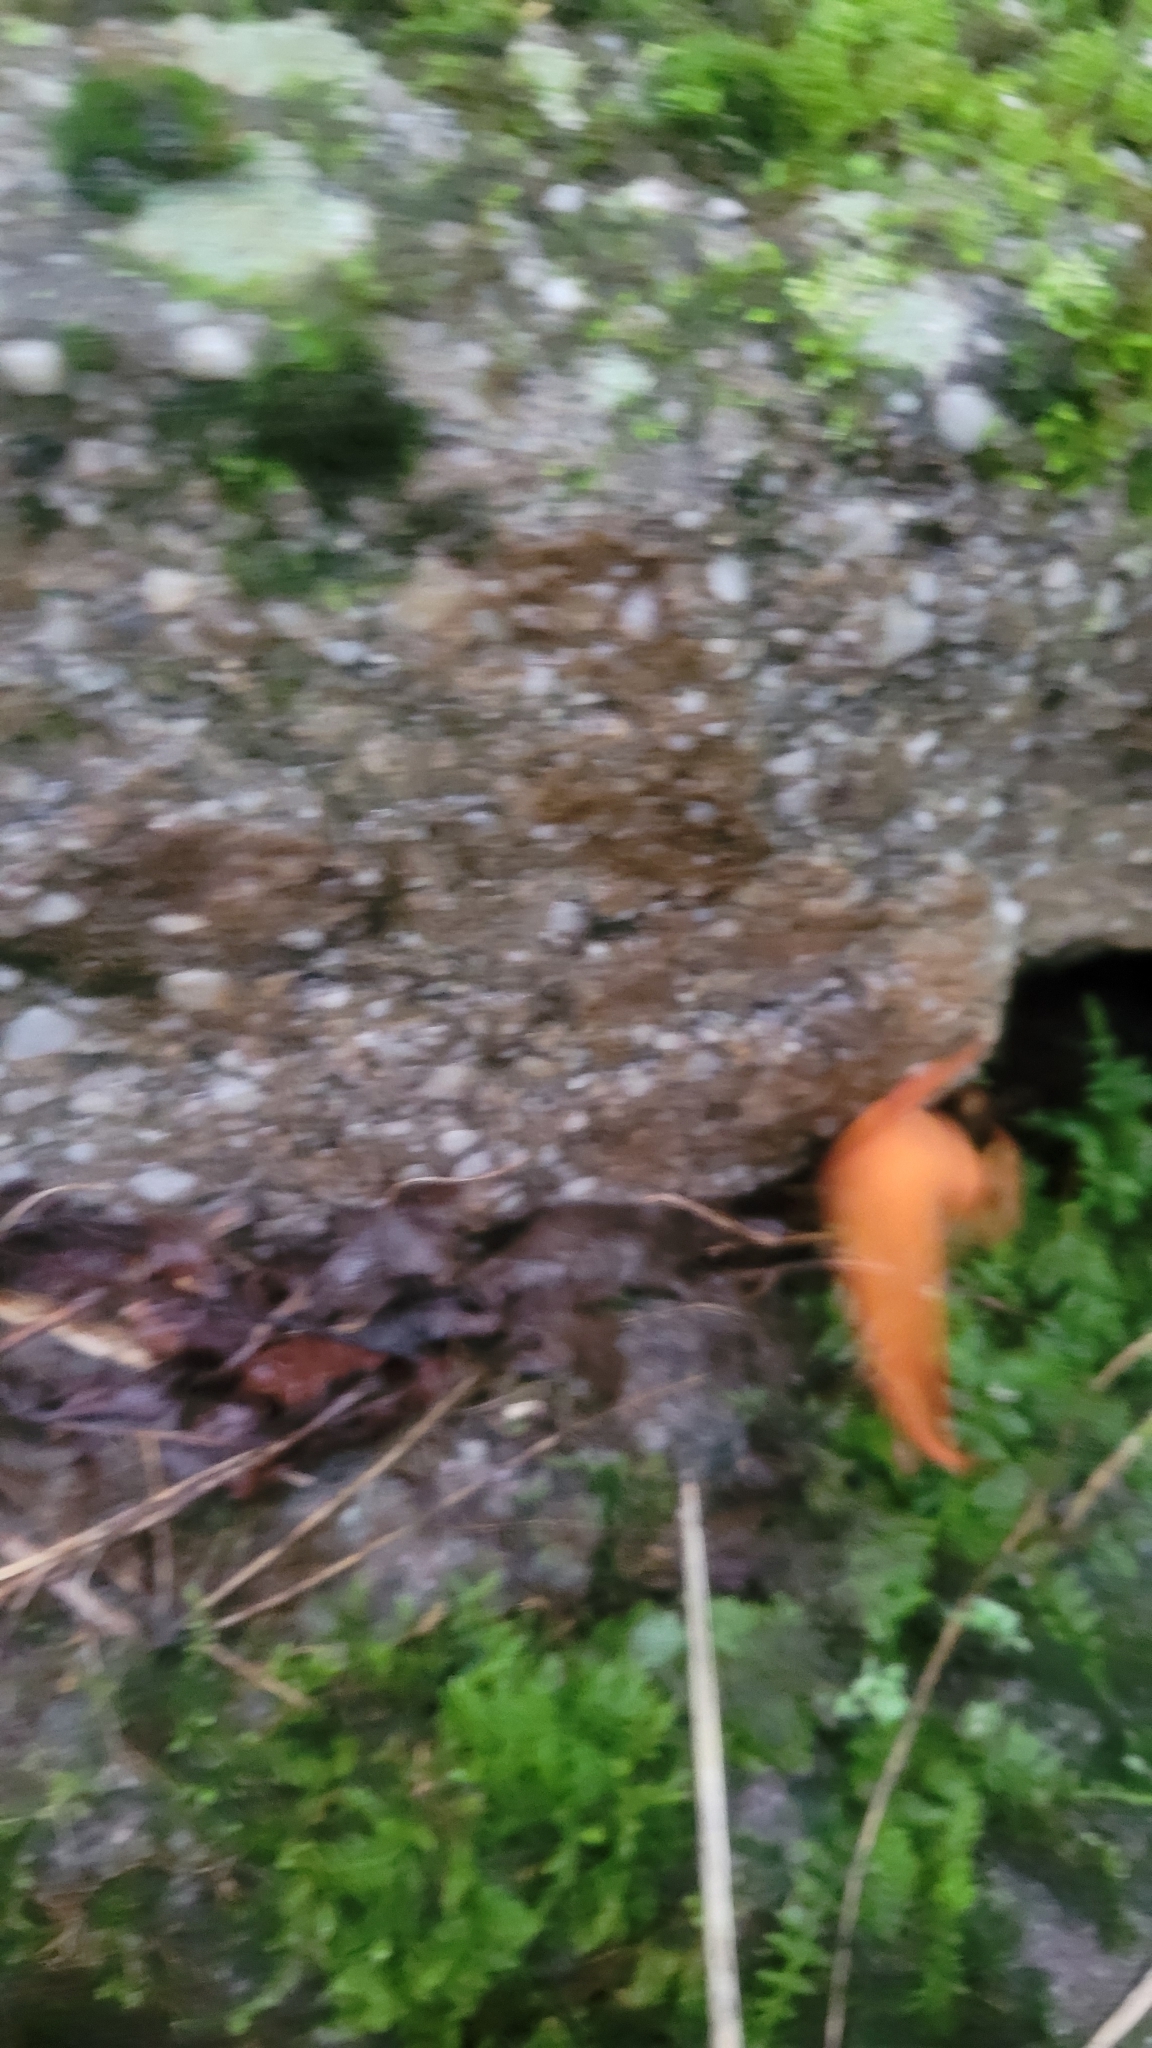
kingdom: Animalia
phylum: Chordata
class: Amphibia
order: Caudata
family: Salamandridae
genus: Notophthalmus
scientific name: Notophthalmus viridescens
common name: Eastern newt
